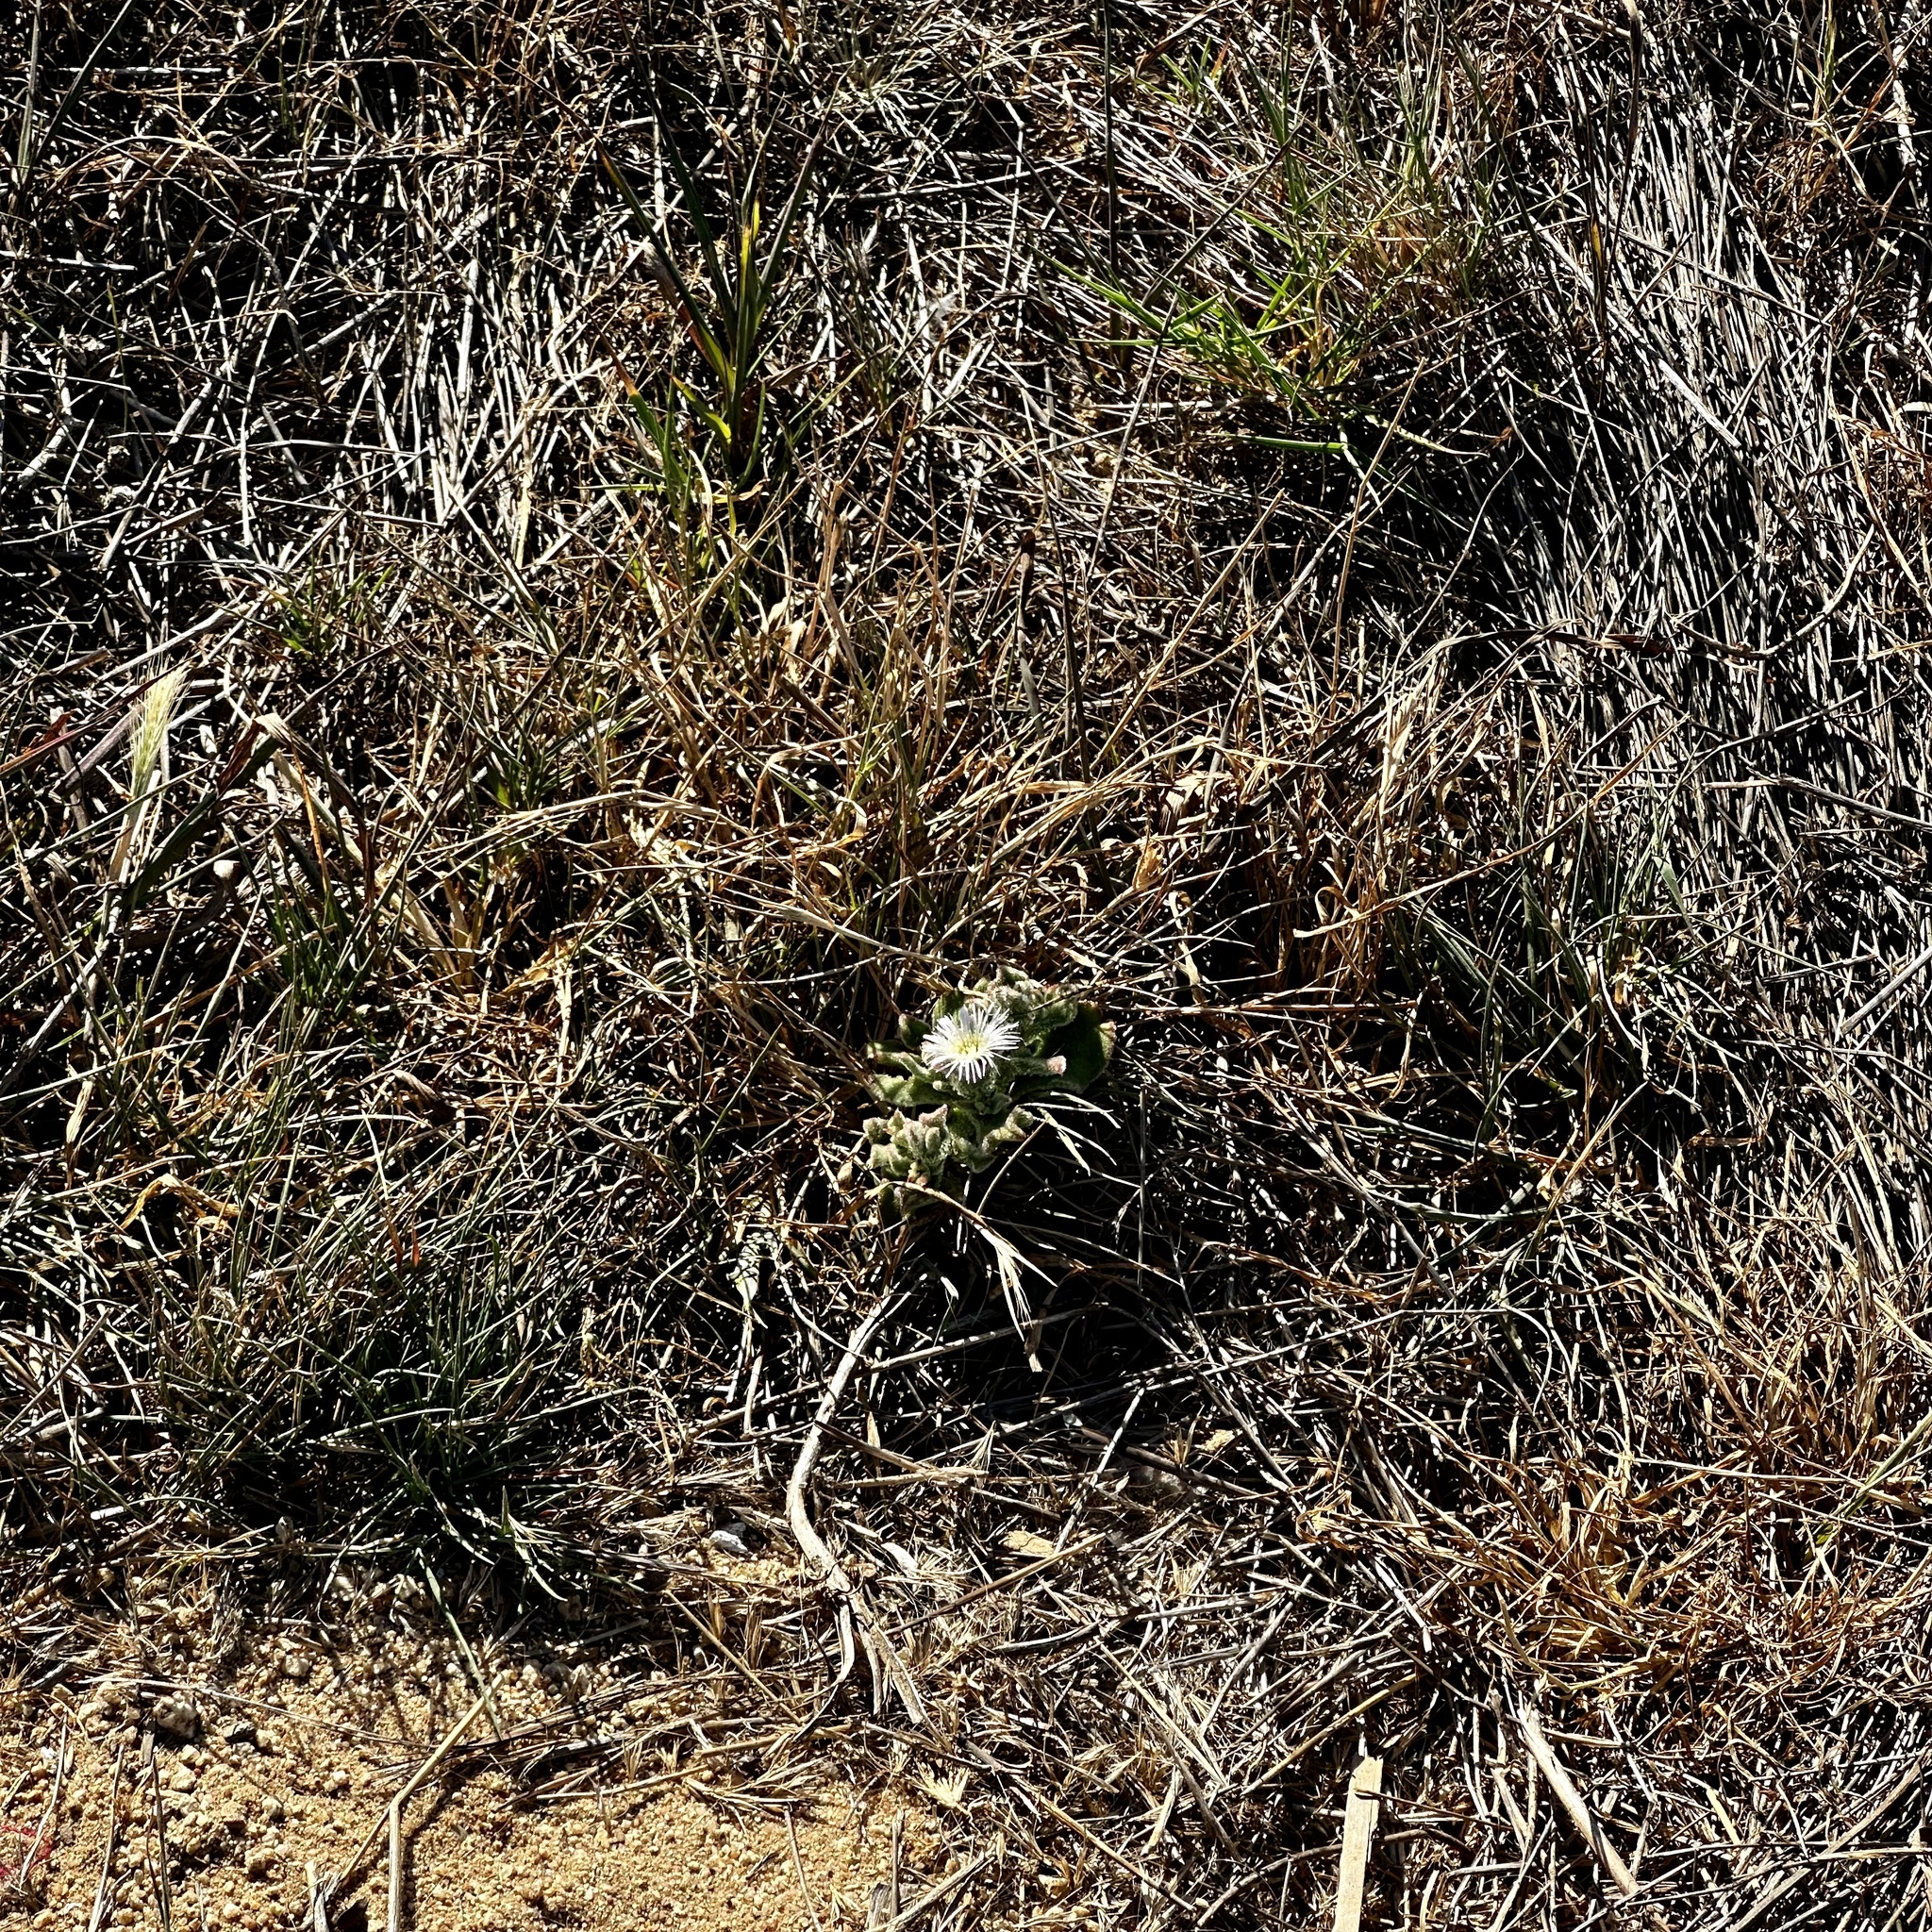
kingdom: Plantae
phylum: Tracheophyta
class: Magnoliopsida
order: Caryophyllales
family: Aizoaceae
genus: Mesembryanthemum
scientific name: Mesembryanthemum crystallinum
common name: Common iceplant
